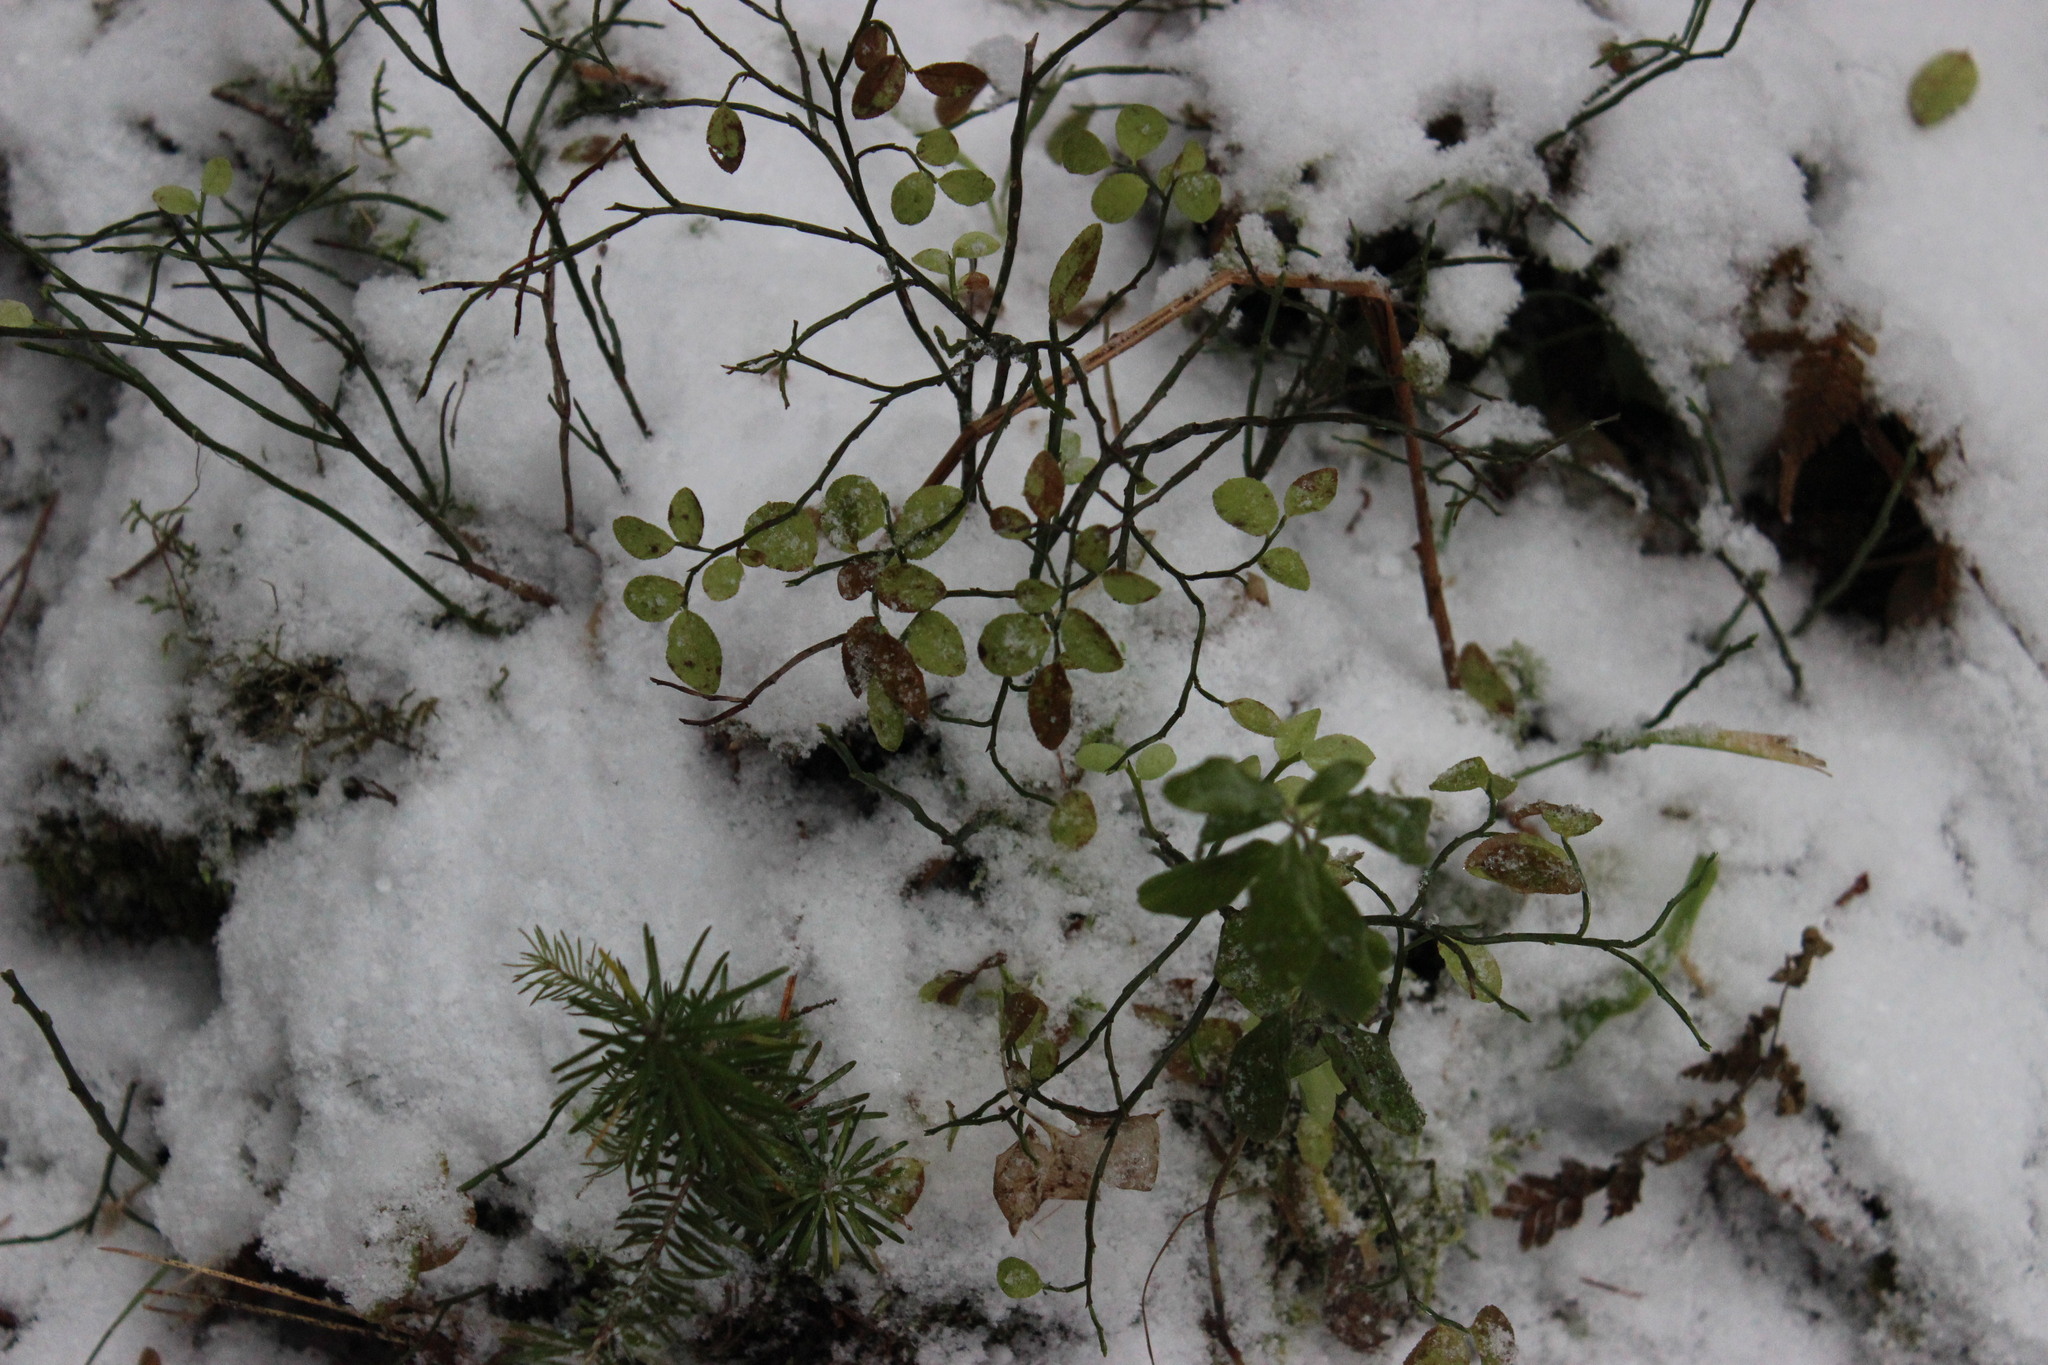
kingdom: Plantae
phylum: Tracheophyta
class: Magnoliopsida
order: Ericales
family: Ericaceae
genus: Vaccinium
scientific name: Vaccinium myrtillus
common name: Bilberry
